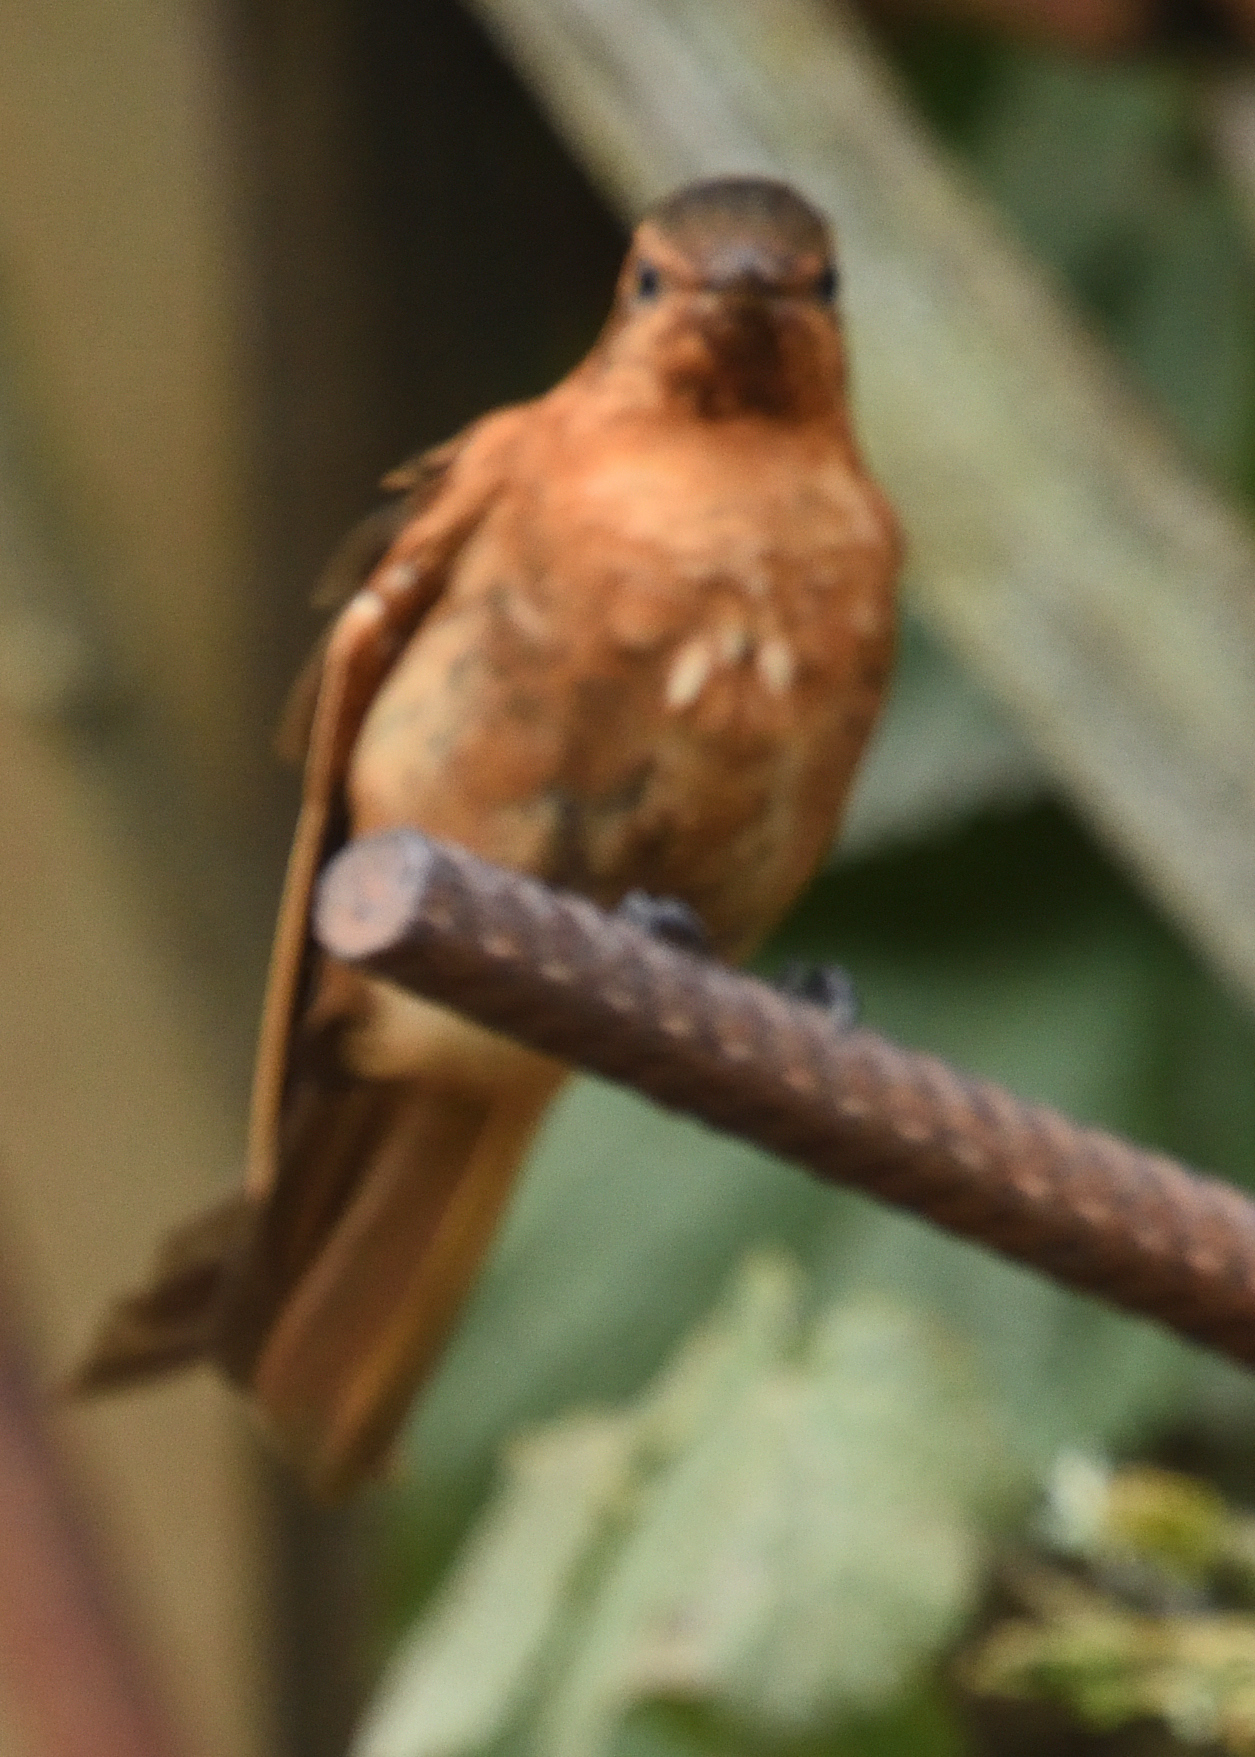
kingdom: Animalia
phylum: Chordata
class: Aves
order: Apodiformes
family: Trochilidae
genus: Aglaeactis
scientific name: Aglaeactis cupripennis
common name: Shining sunbeam
